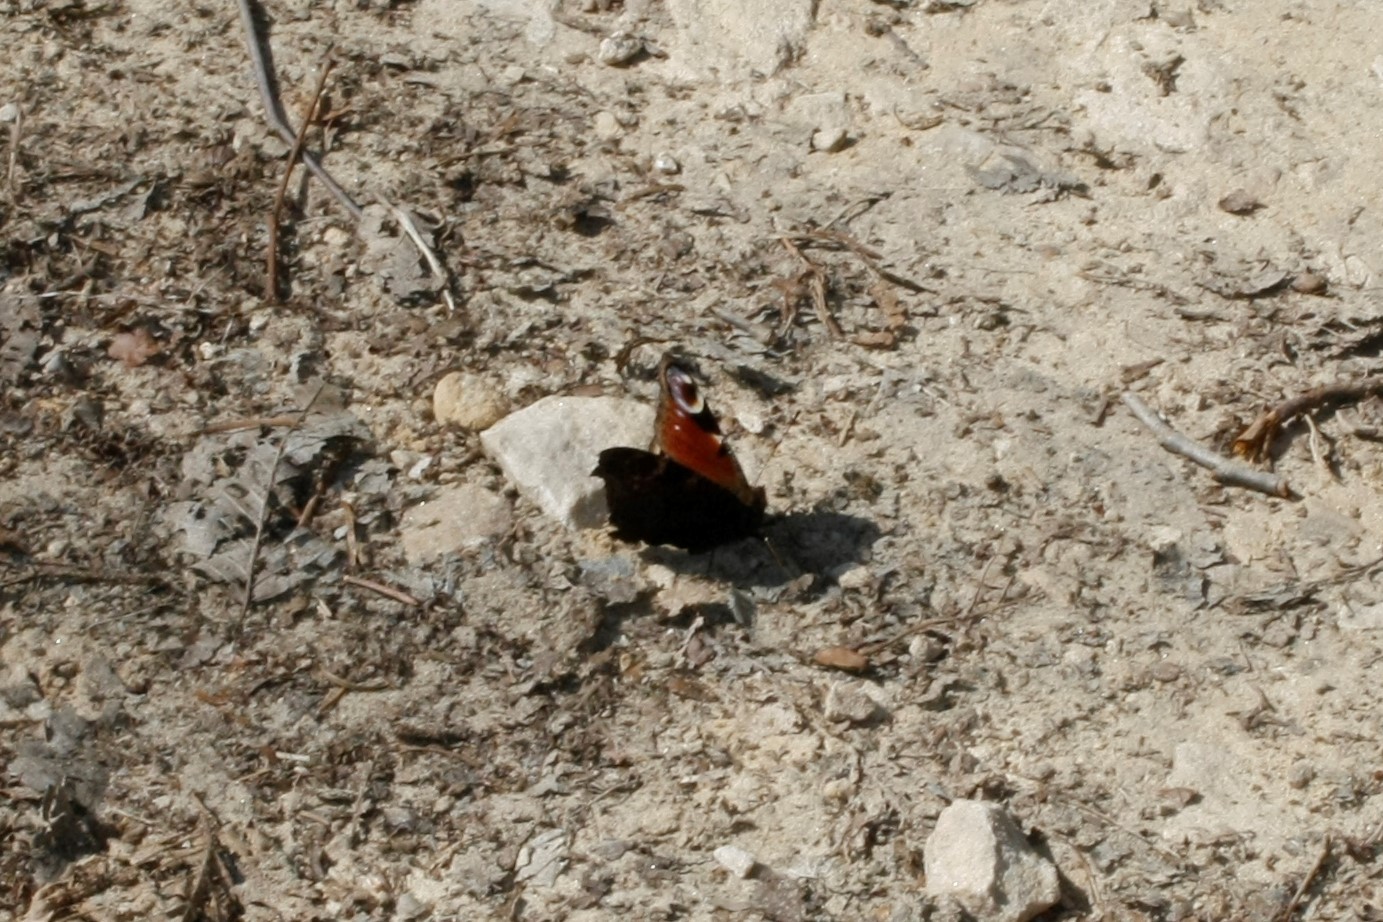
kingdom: Animalia
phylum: Arthropoda
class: Insecta
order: Lepidoptera
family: Nymphalidae
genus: Aglais
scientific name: Aglais io
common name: Peacock
